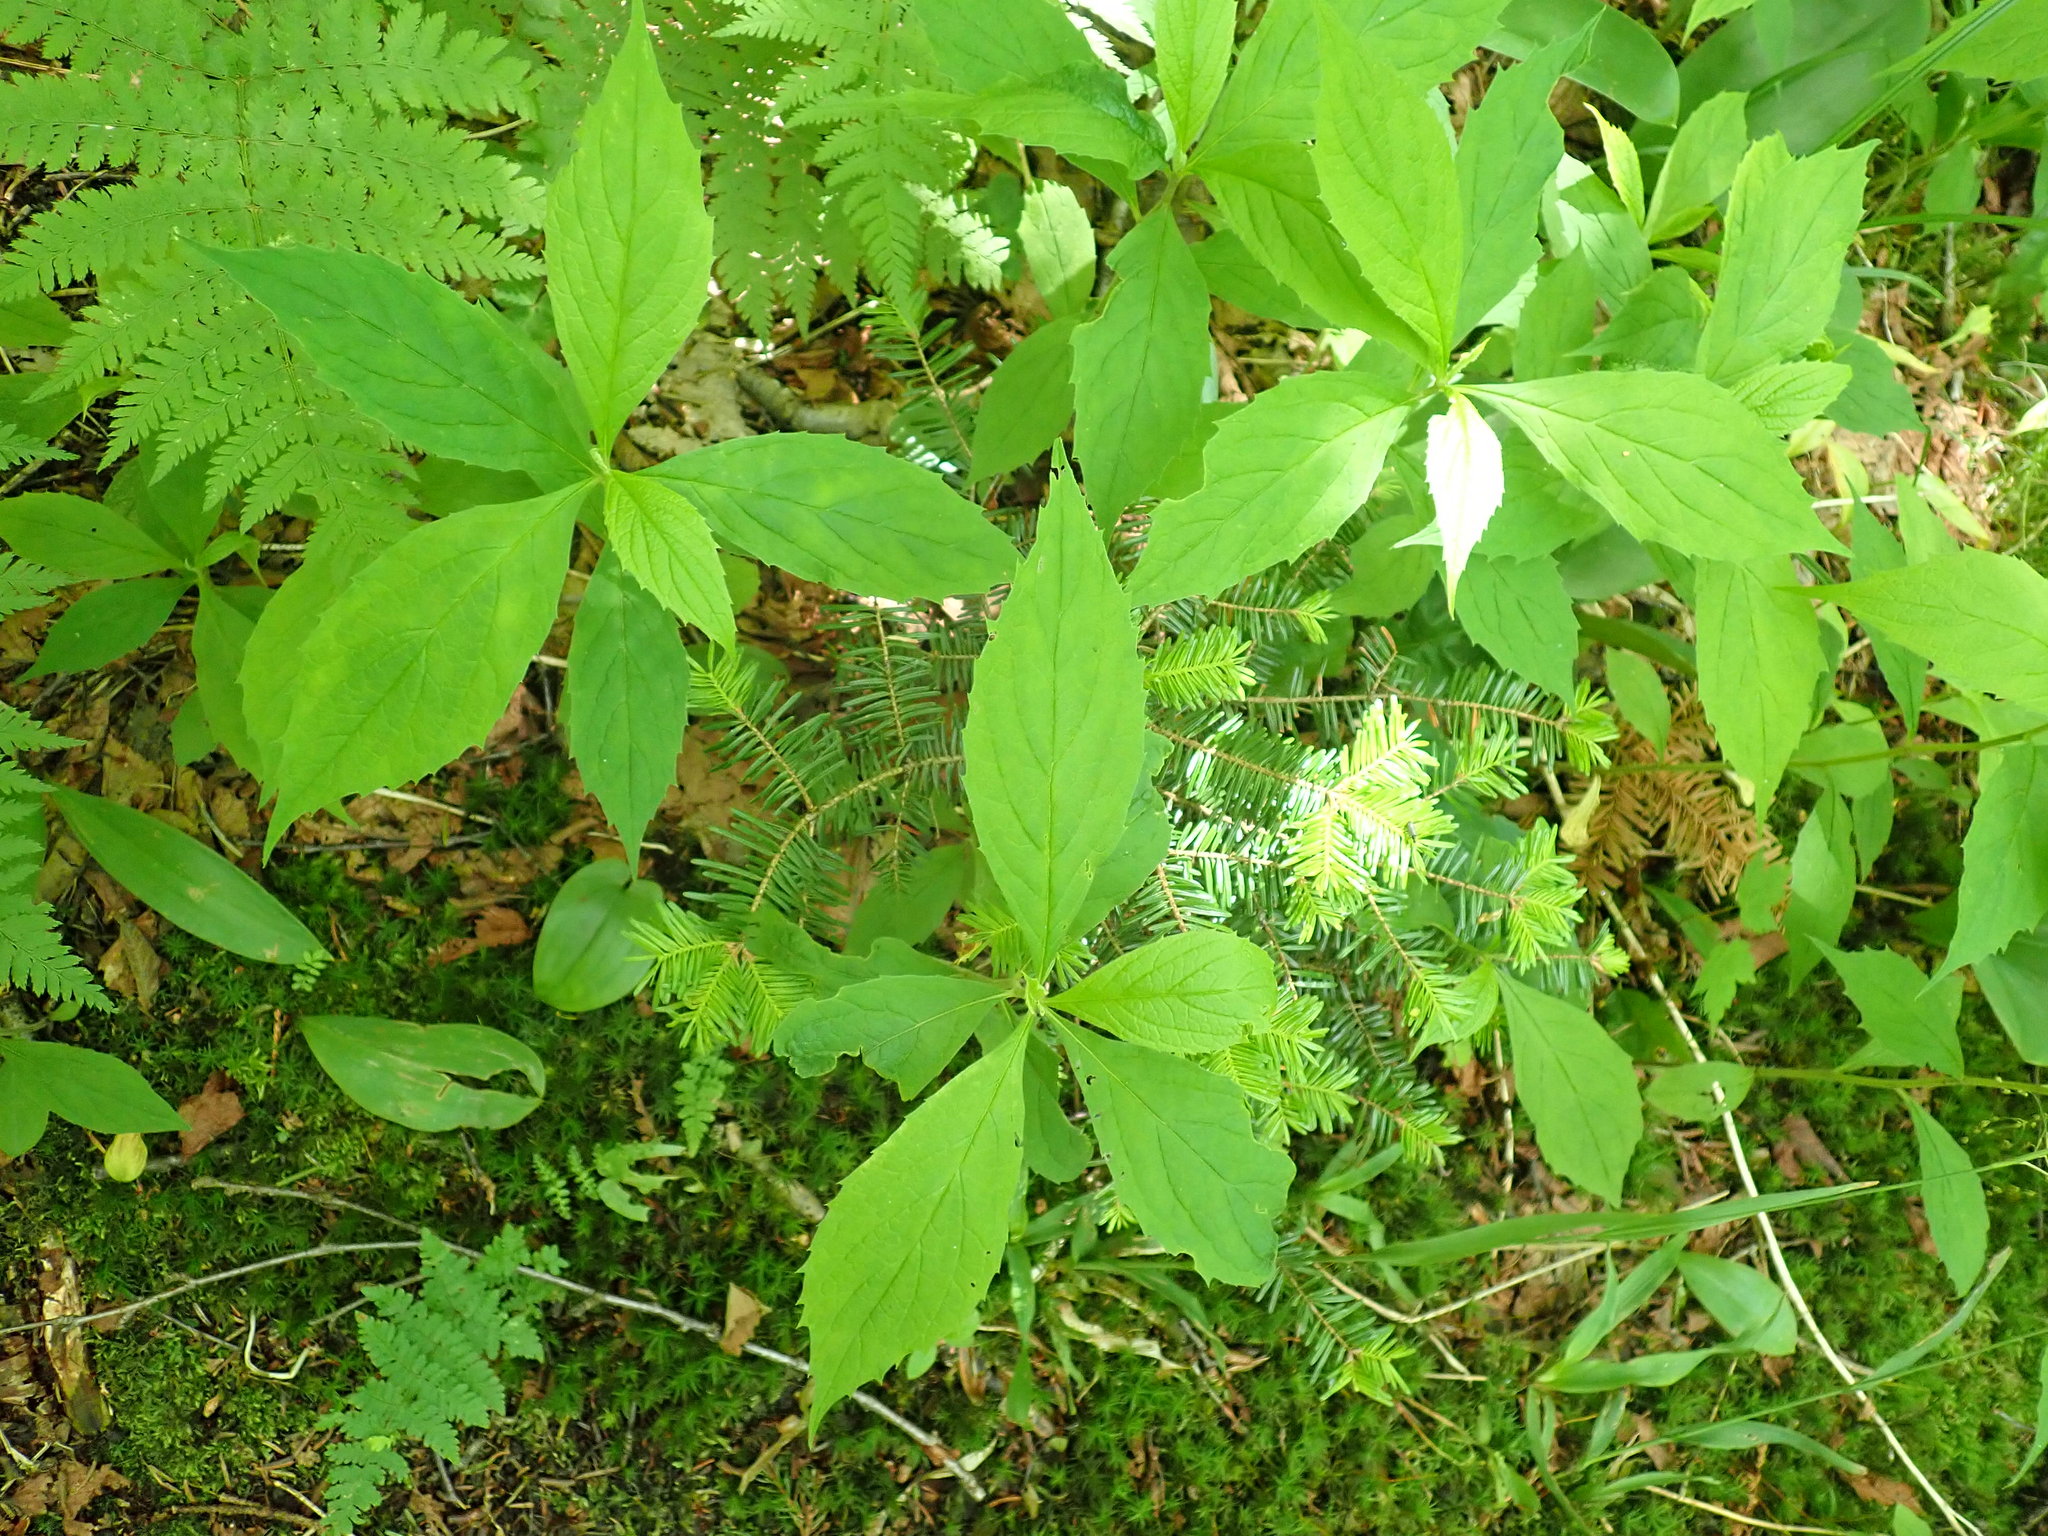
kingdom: Plantae
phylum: Tracheophyta
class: Magnoliopsida
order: Asterales
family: Asteraceae
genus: Oclemena
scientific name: Oclemena acuminata
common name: Mountain aster
